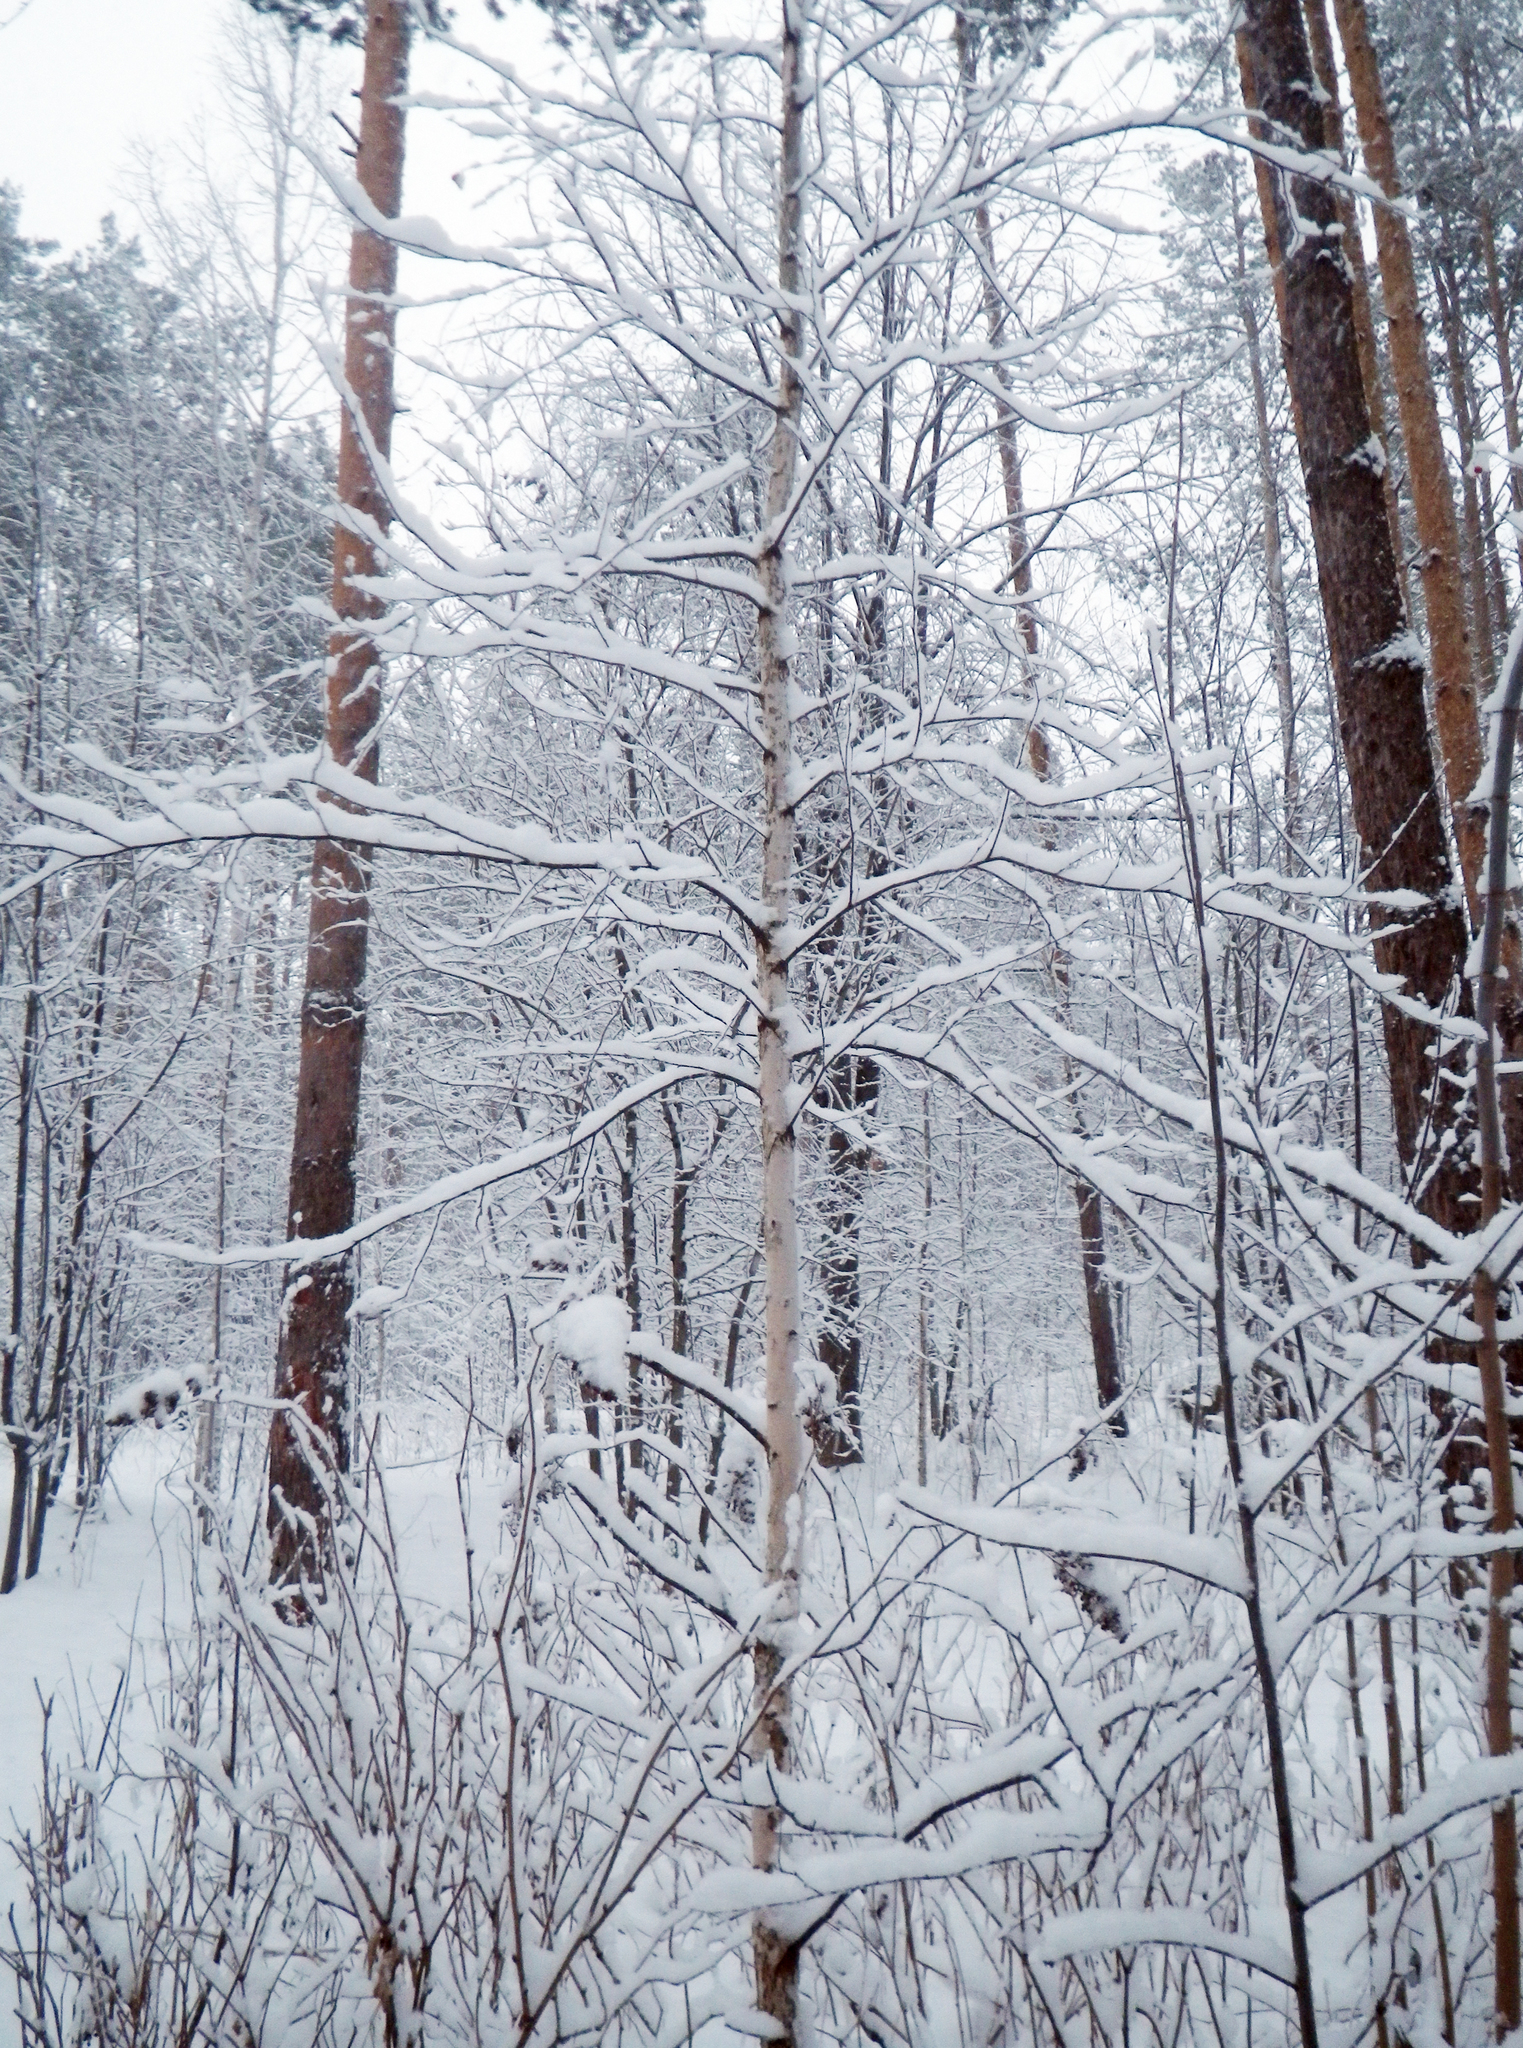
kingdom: Plantae
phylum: Tracheophyta
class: Magnoliopsida
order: Fagales
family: Betulaceae
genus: Betula
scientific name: Betula pendula
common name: Silver birch
